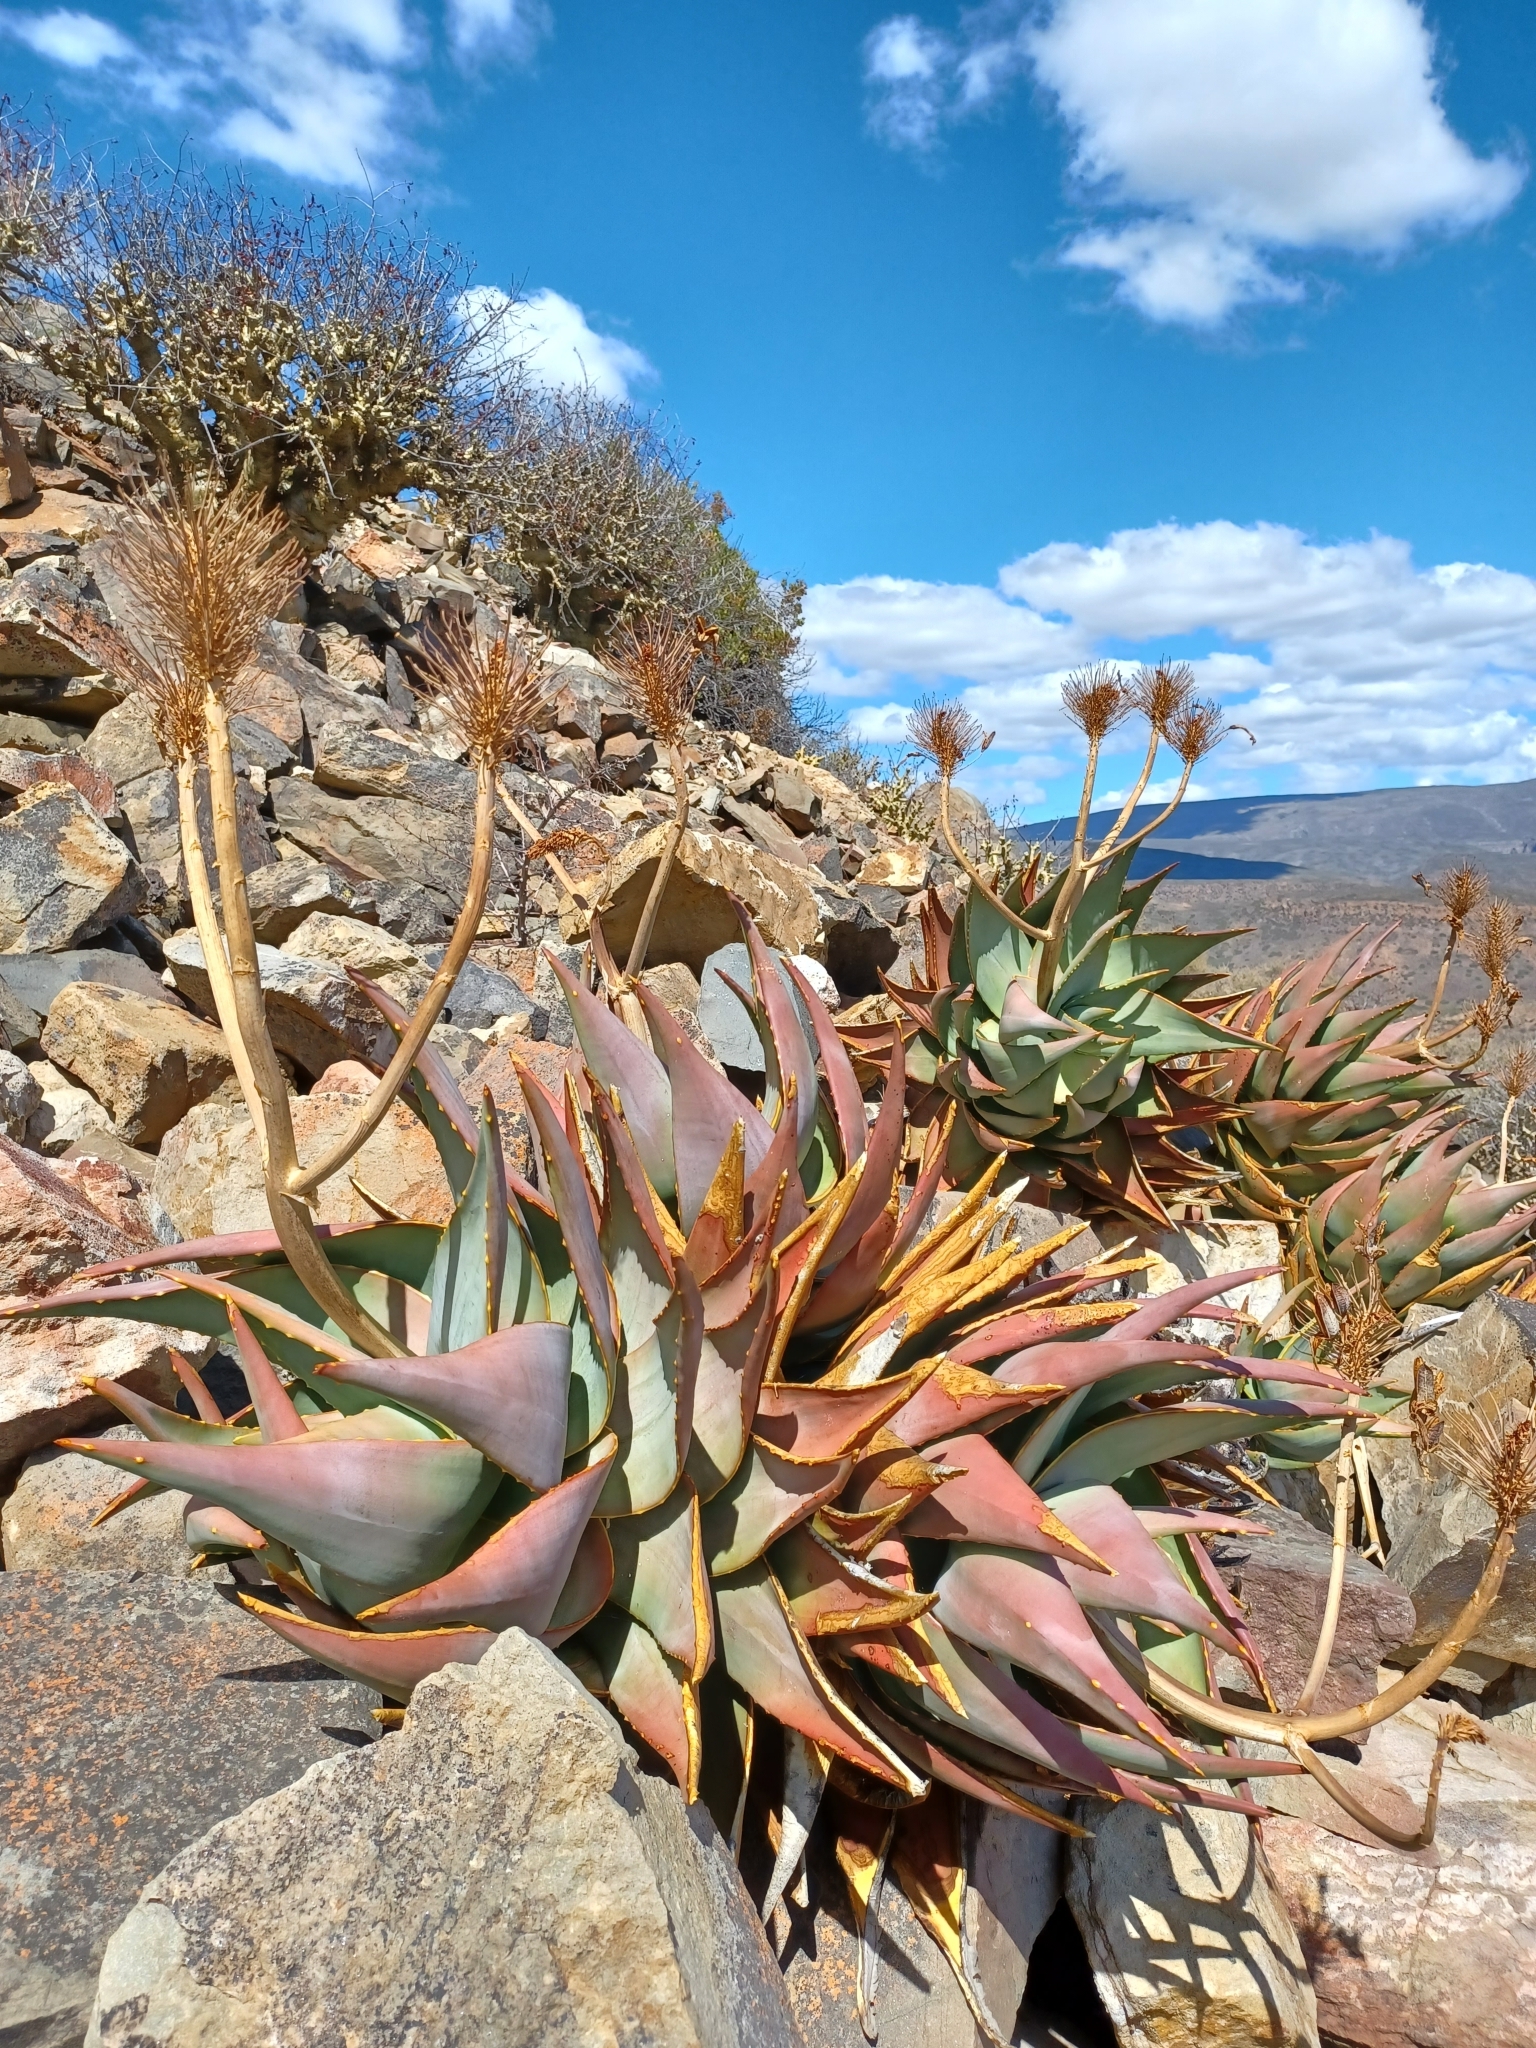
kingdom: Plantae
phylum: Tracheophyta
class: Liliopsida
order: Asparagales
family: Asphodelaceae
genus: Aloe
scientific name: Aloe perfoliata
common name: Mitra aloe
